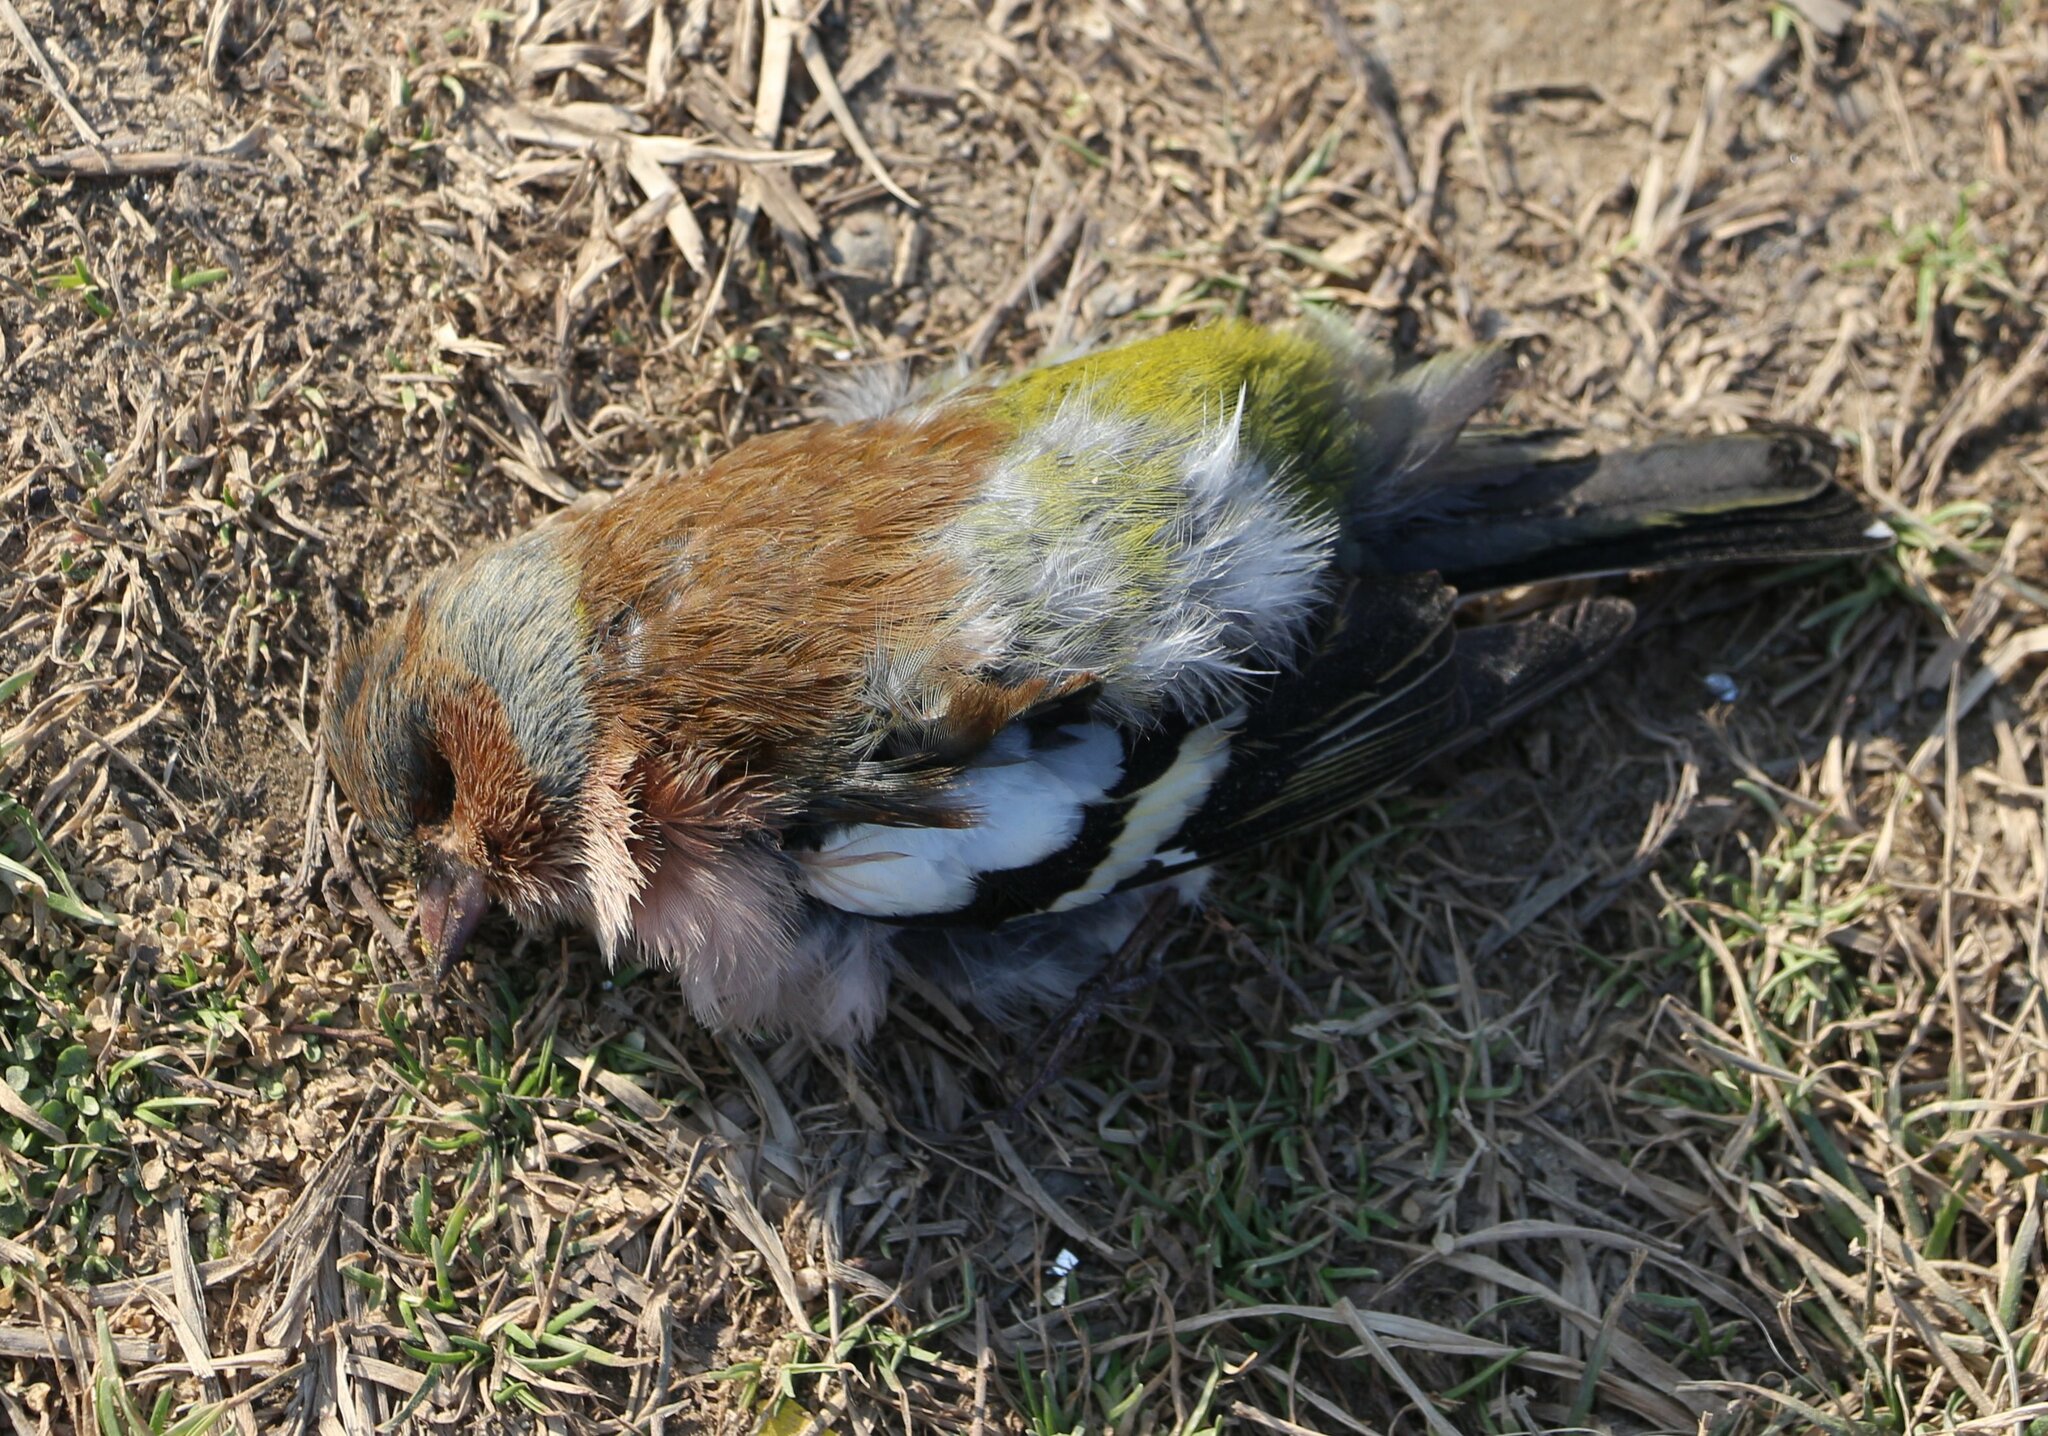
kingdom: Animalia
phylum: Chordata
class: Aves
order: Passeriformes
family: Fringillidae
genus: Fringilla
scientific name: Fringilla coelebs
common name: Common chaffinch
